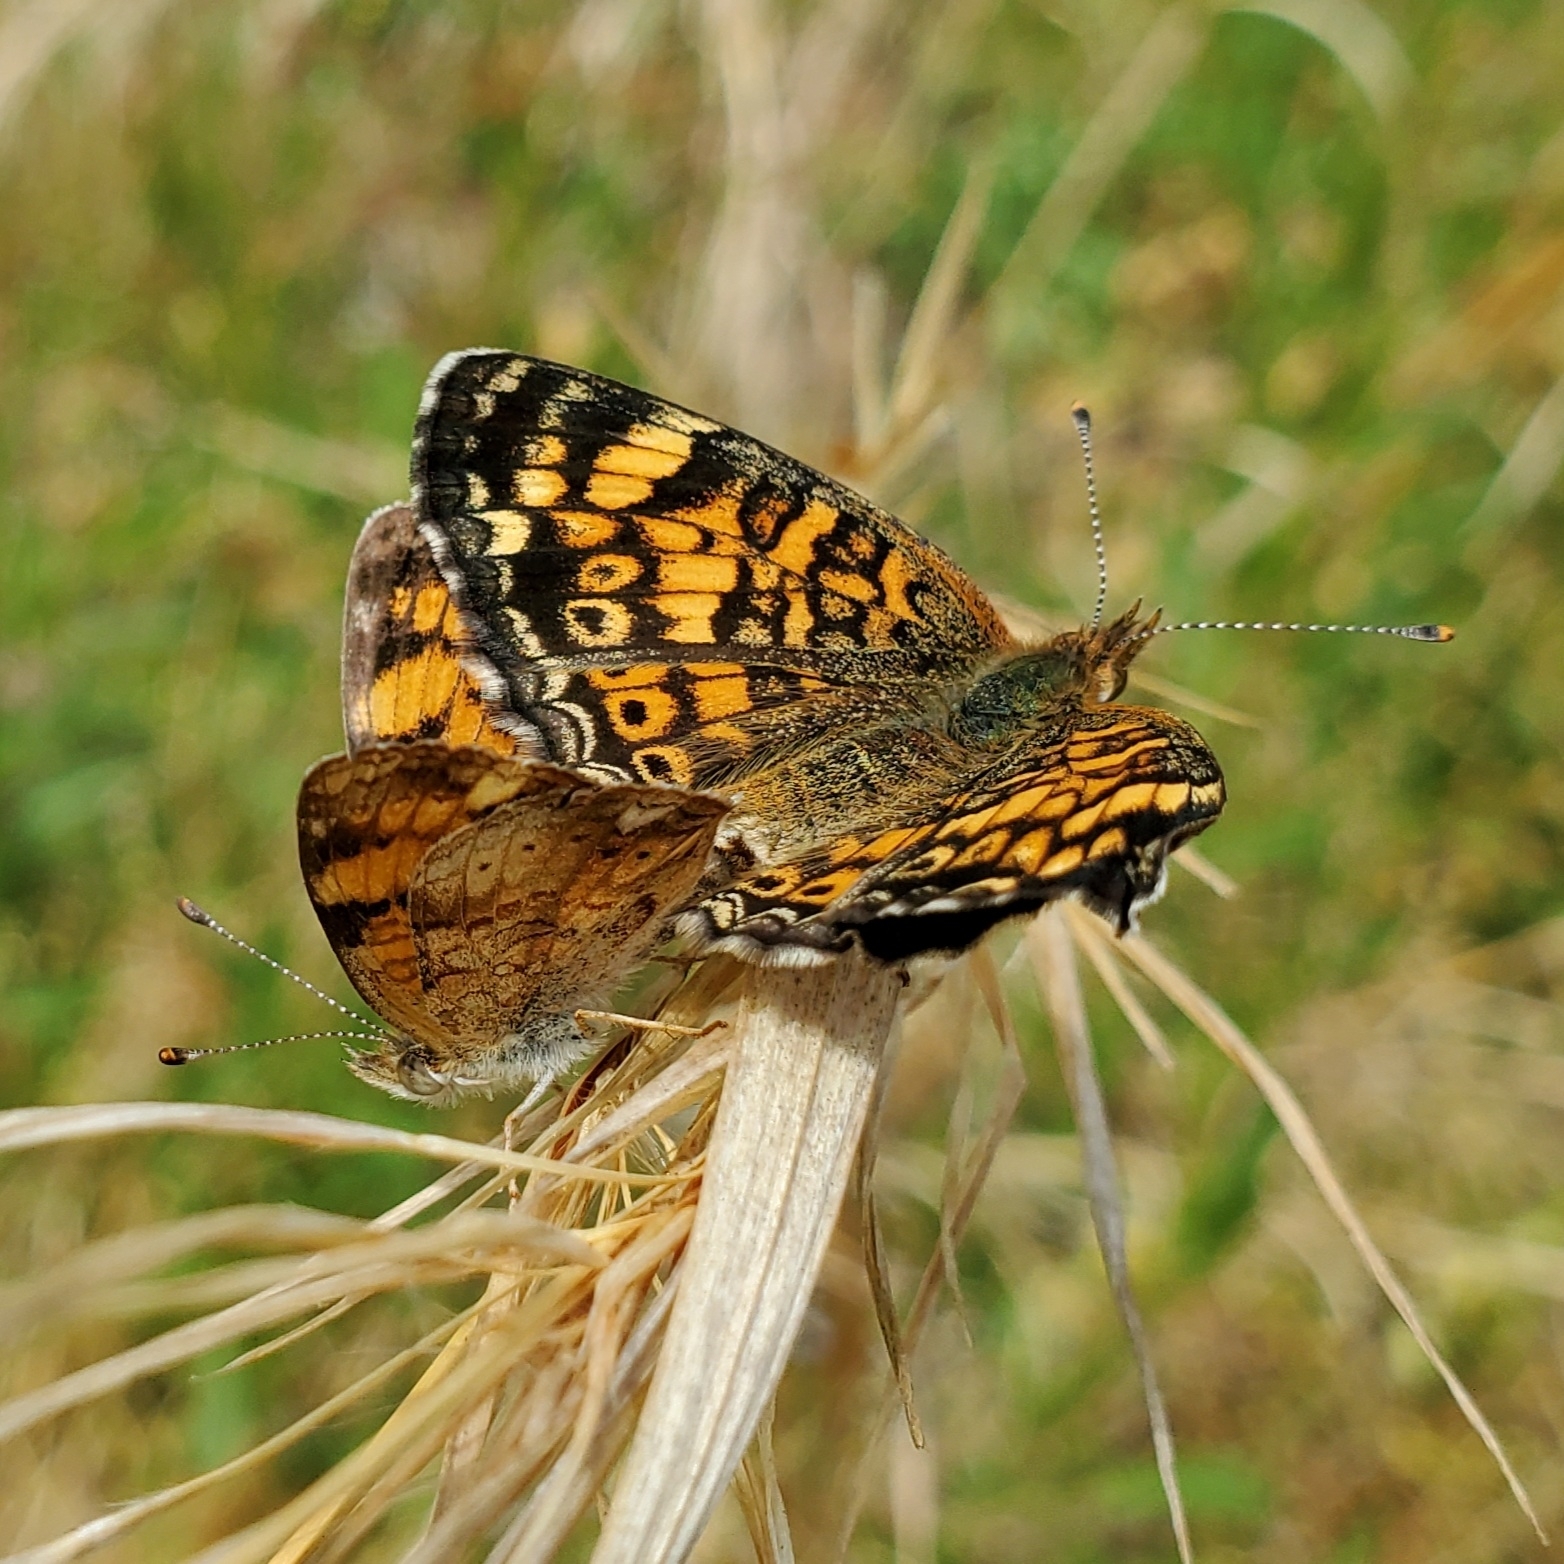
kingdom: Animalia
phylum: Arthropoda
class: Insecta
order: Lepidoptera
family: Nymphalidae
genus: Phyciodes
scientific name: Phyciodes tharos
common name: Pearl crescent
